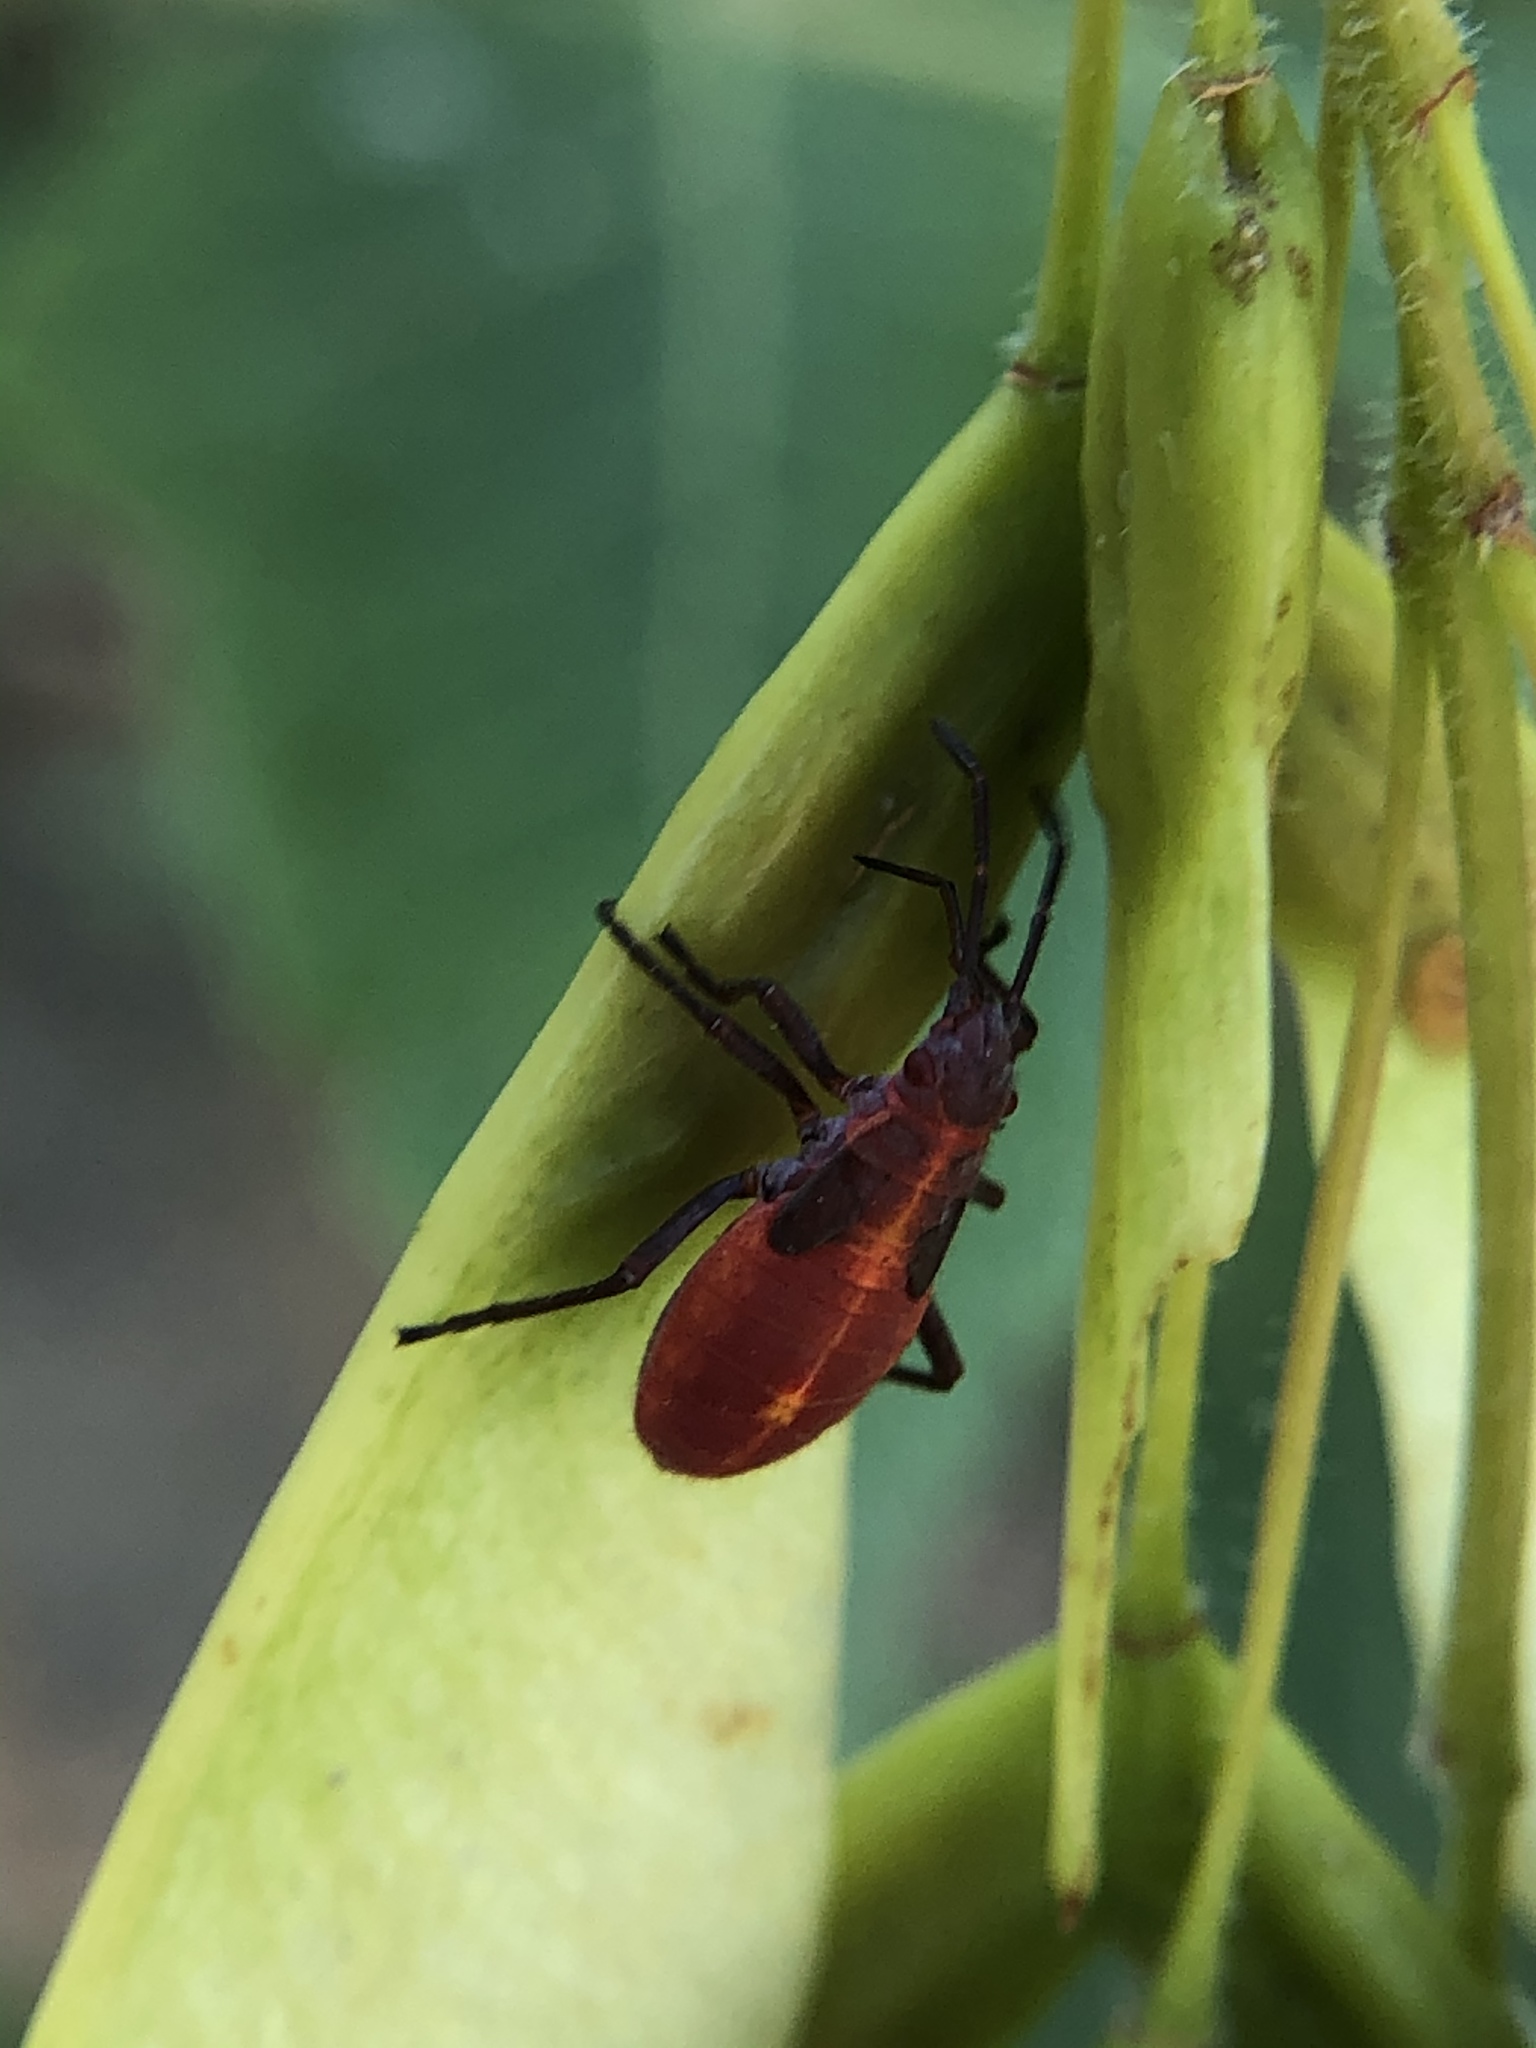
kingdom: Animalia
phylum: Arthropoda
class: Insecta
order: Hemiptera
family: Rhopalidae
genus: Boisea
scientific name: Boisea trivittata
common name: Boxelder bug
